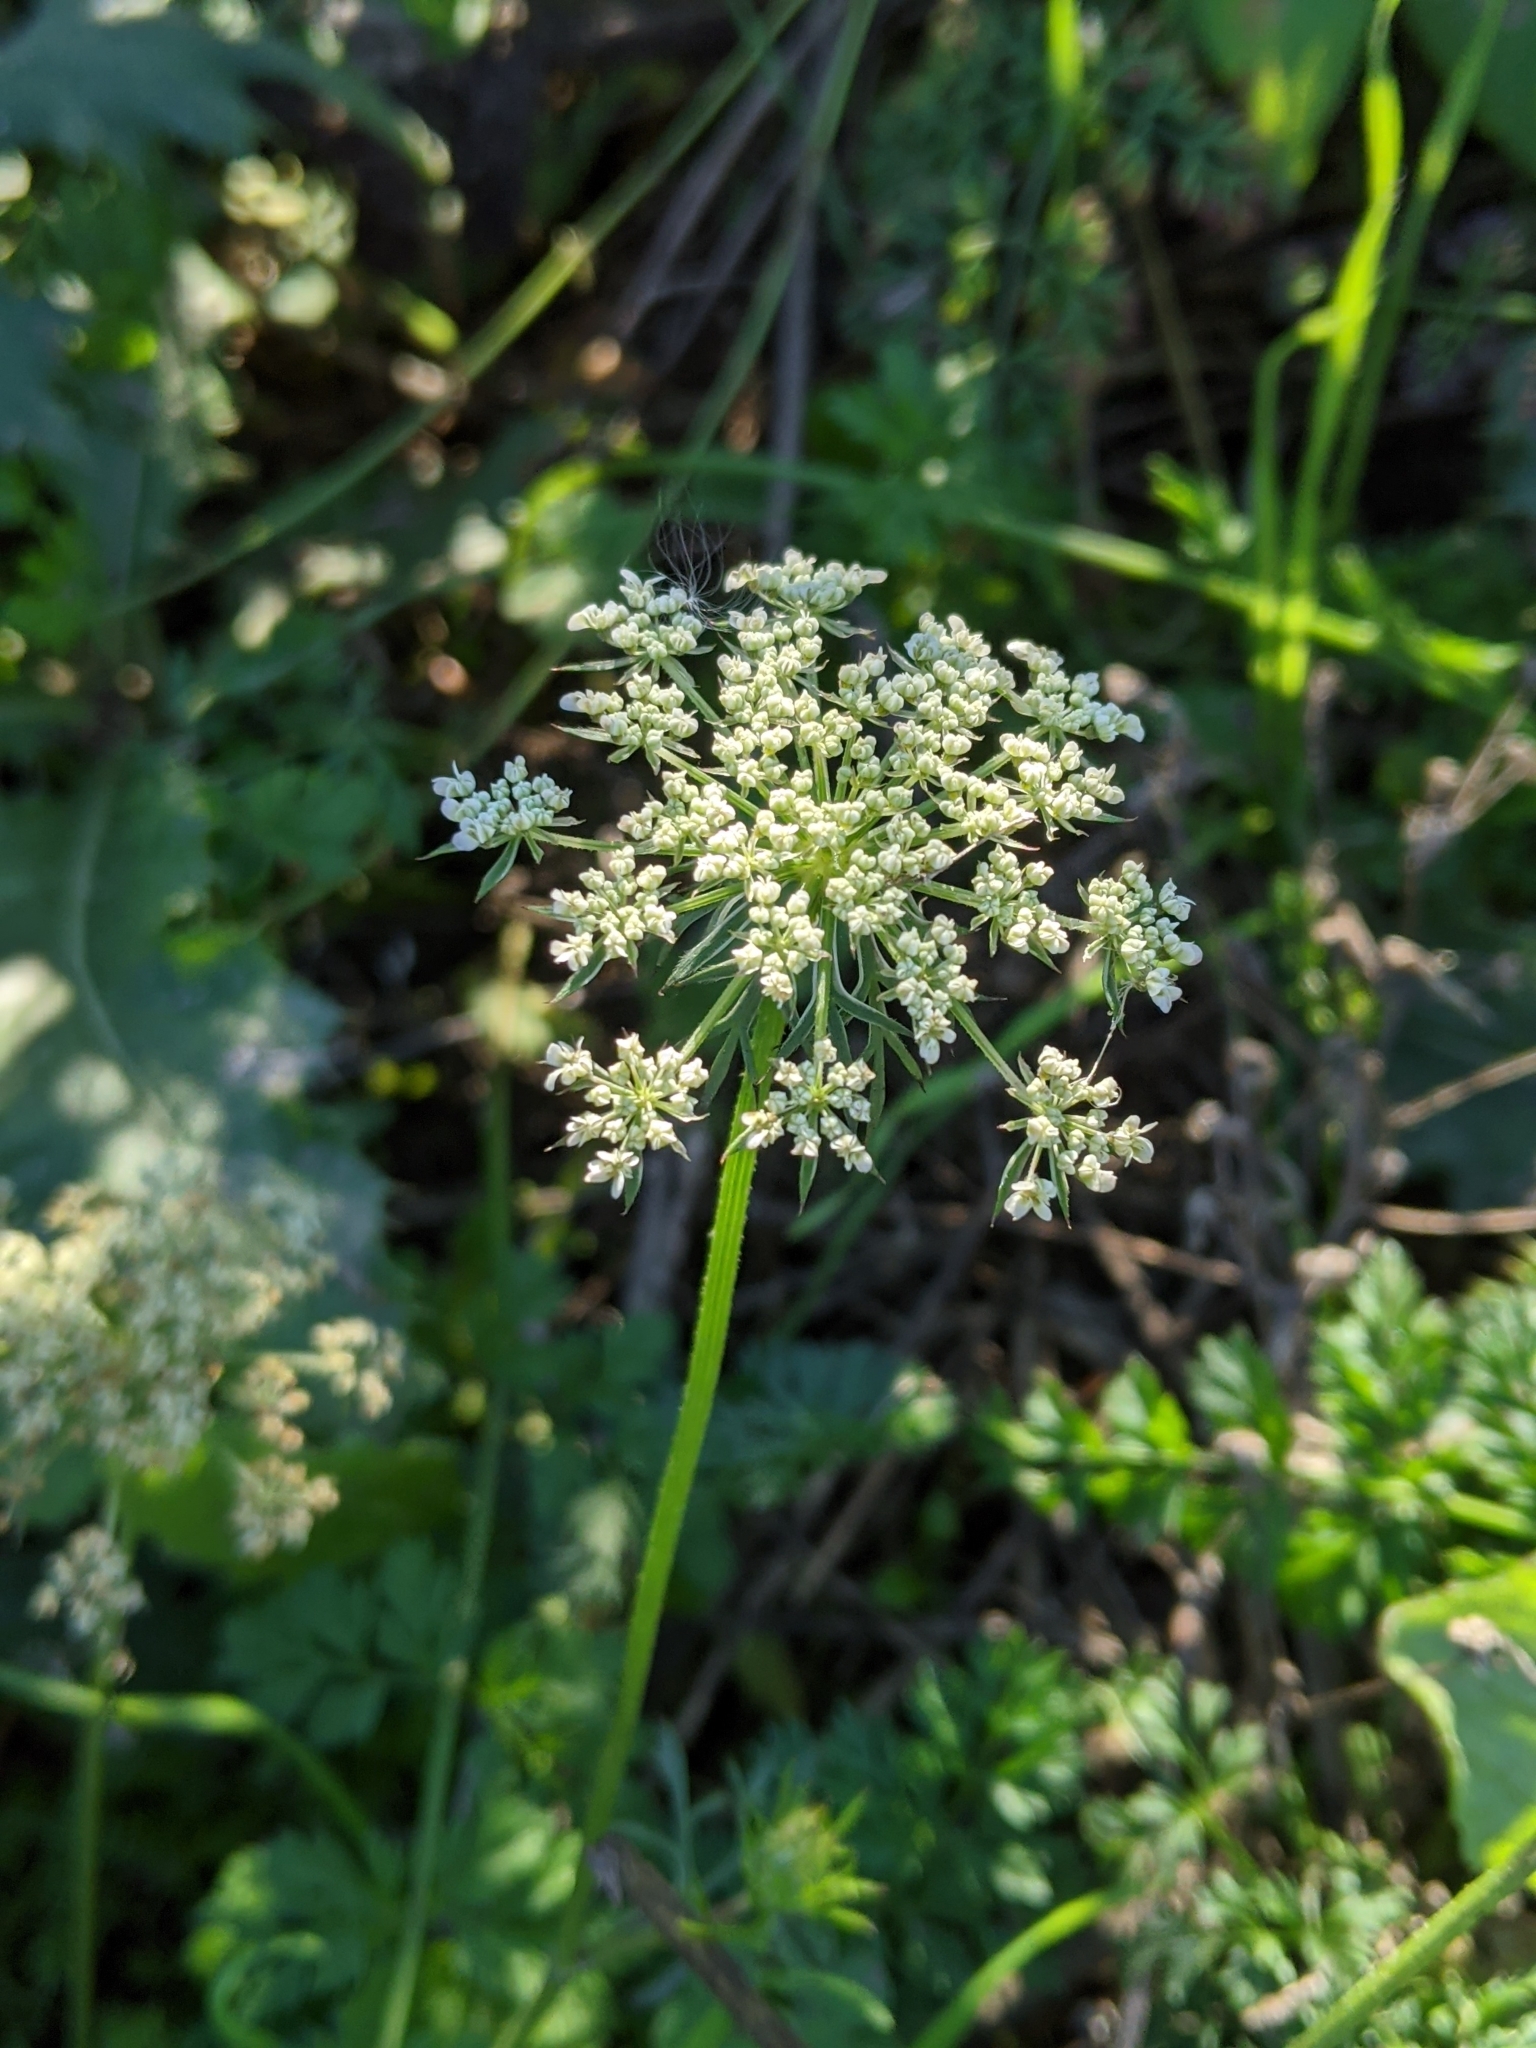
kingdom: Plantae
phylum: Tracheophyta
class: Magnoliopsida
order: Apiales
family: Apiaceae
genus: Daucus
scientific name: Daucus carota
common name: Wild carrot
